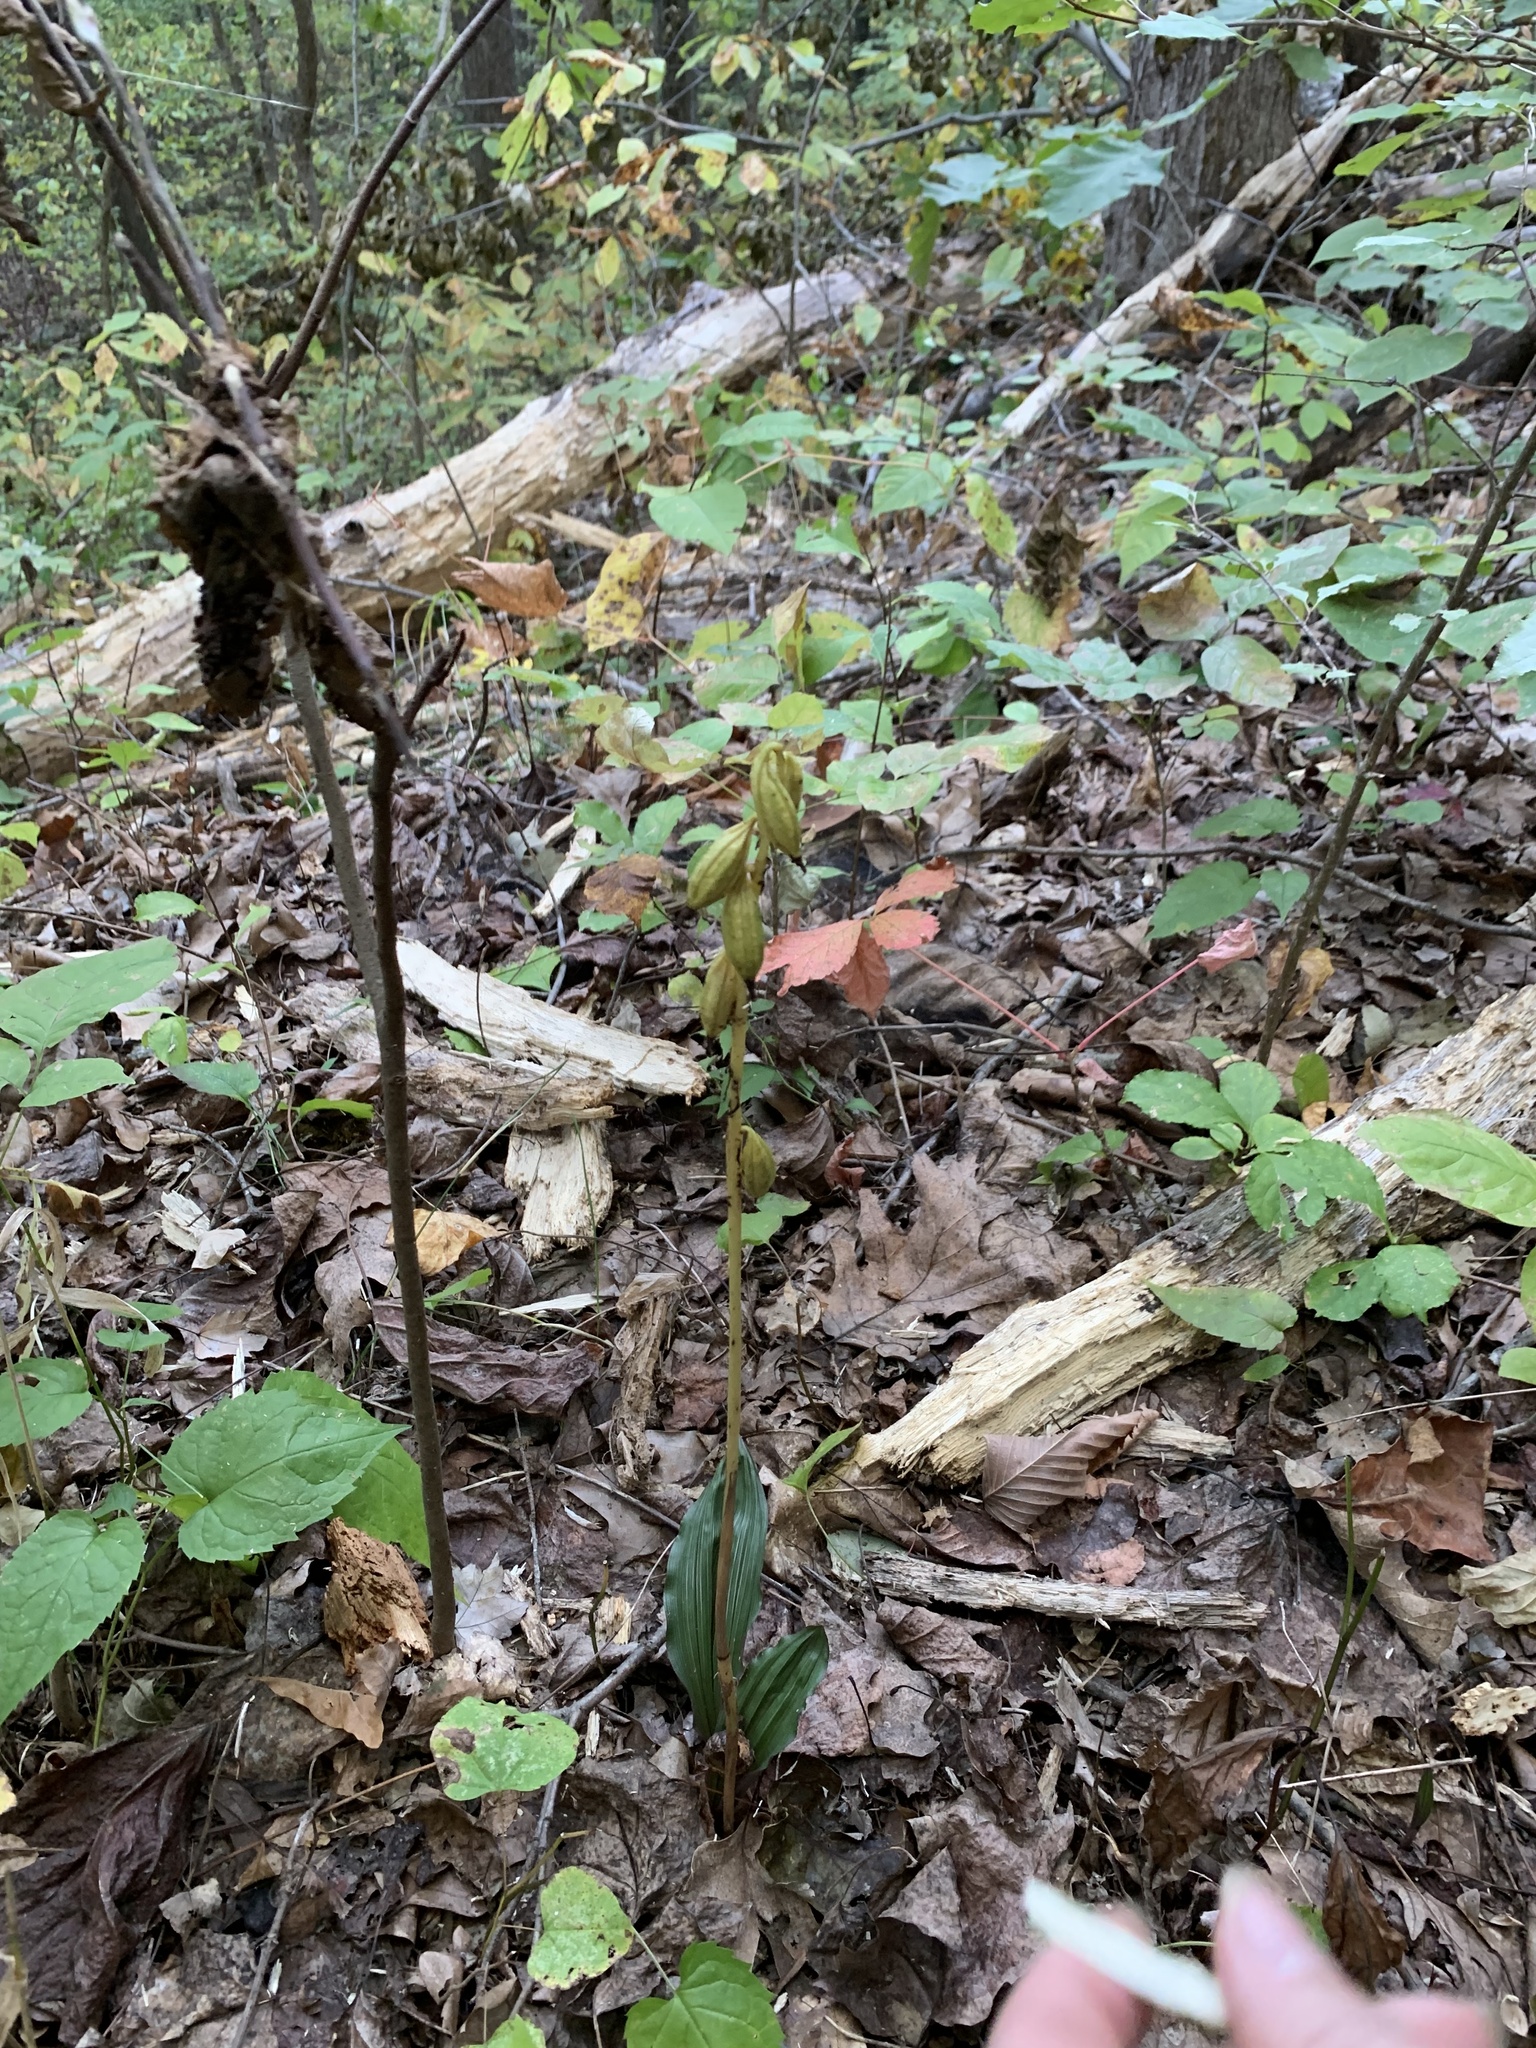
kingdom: Plantae
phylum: Tracheophyta
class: Liliopsida
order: Asparagales
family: Orchidaceae
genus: Aplectrum
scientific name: Aplectrum hyemale
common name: Adam-and-eve
